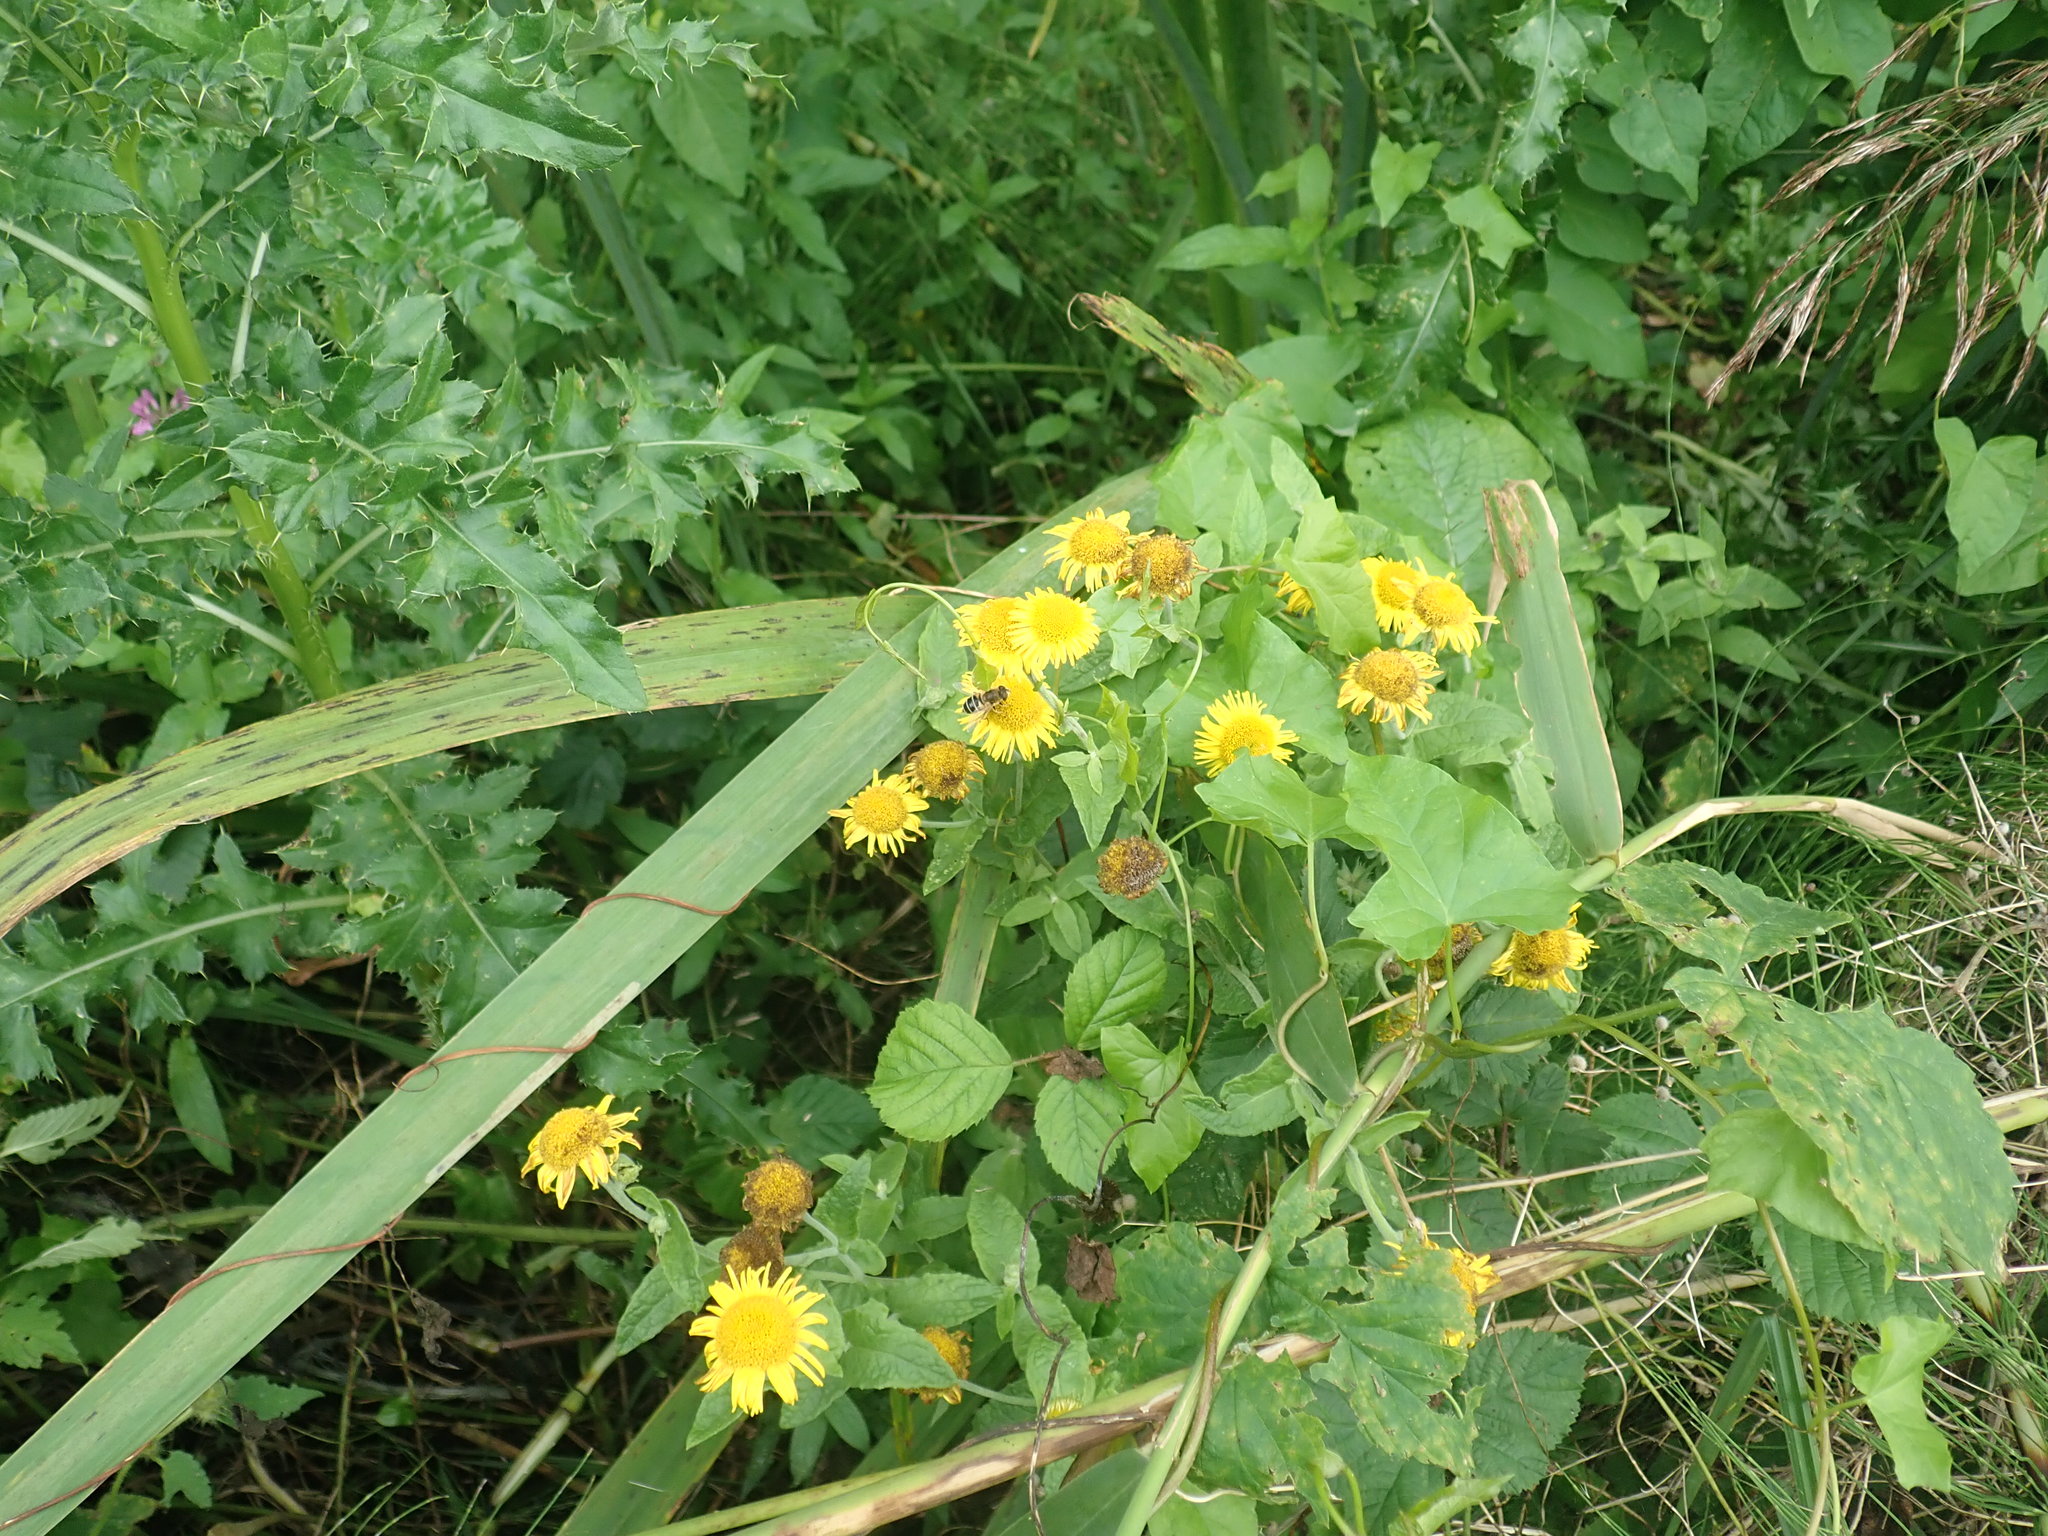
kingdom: Plantae
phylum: Tracheophyta
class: Magnoliopsida
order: Asterales
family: Asteraceae
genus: Pulicaria
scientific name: Pulicaria dysenterica
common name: Common fleabane
